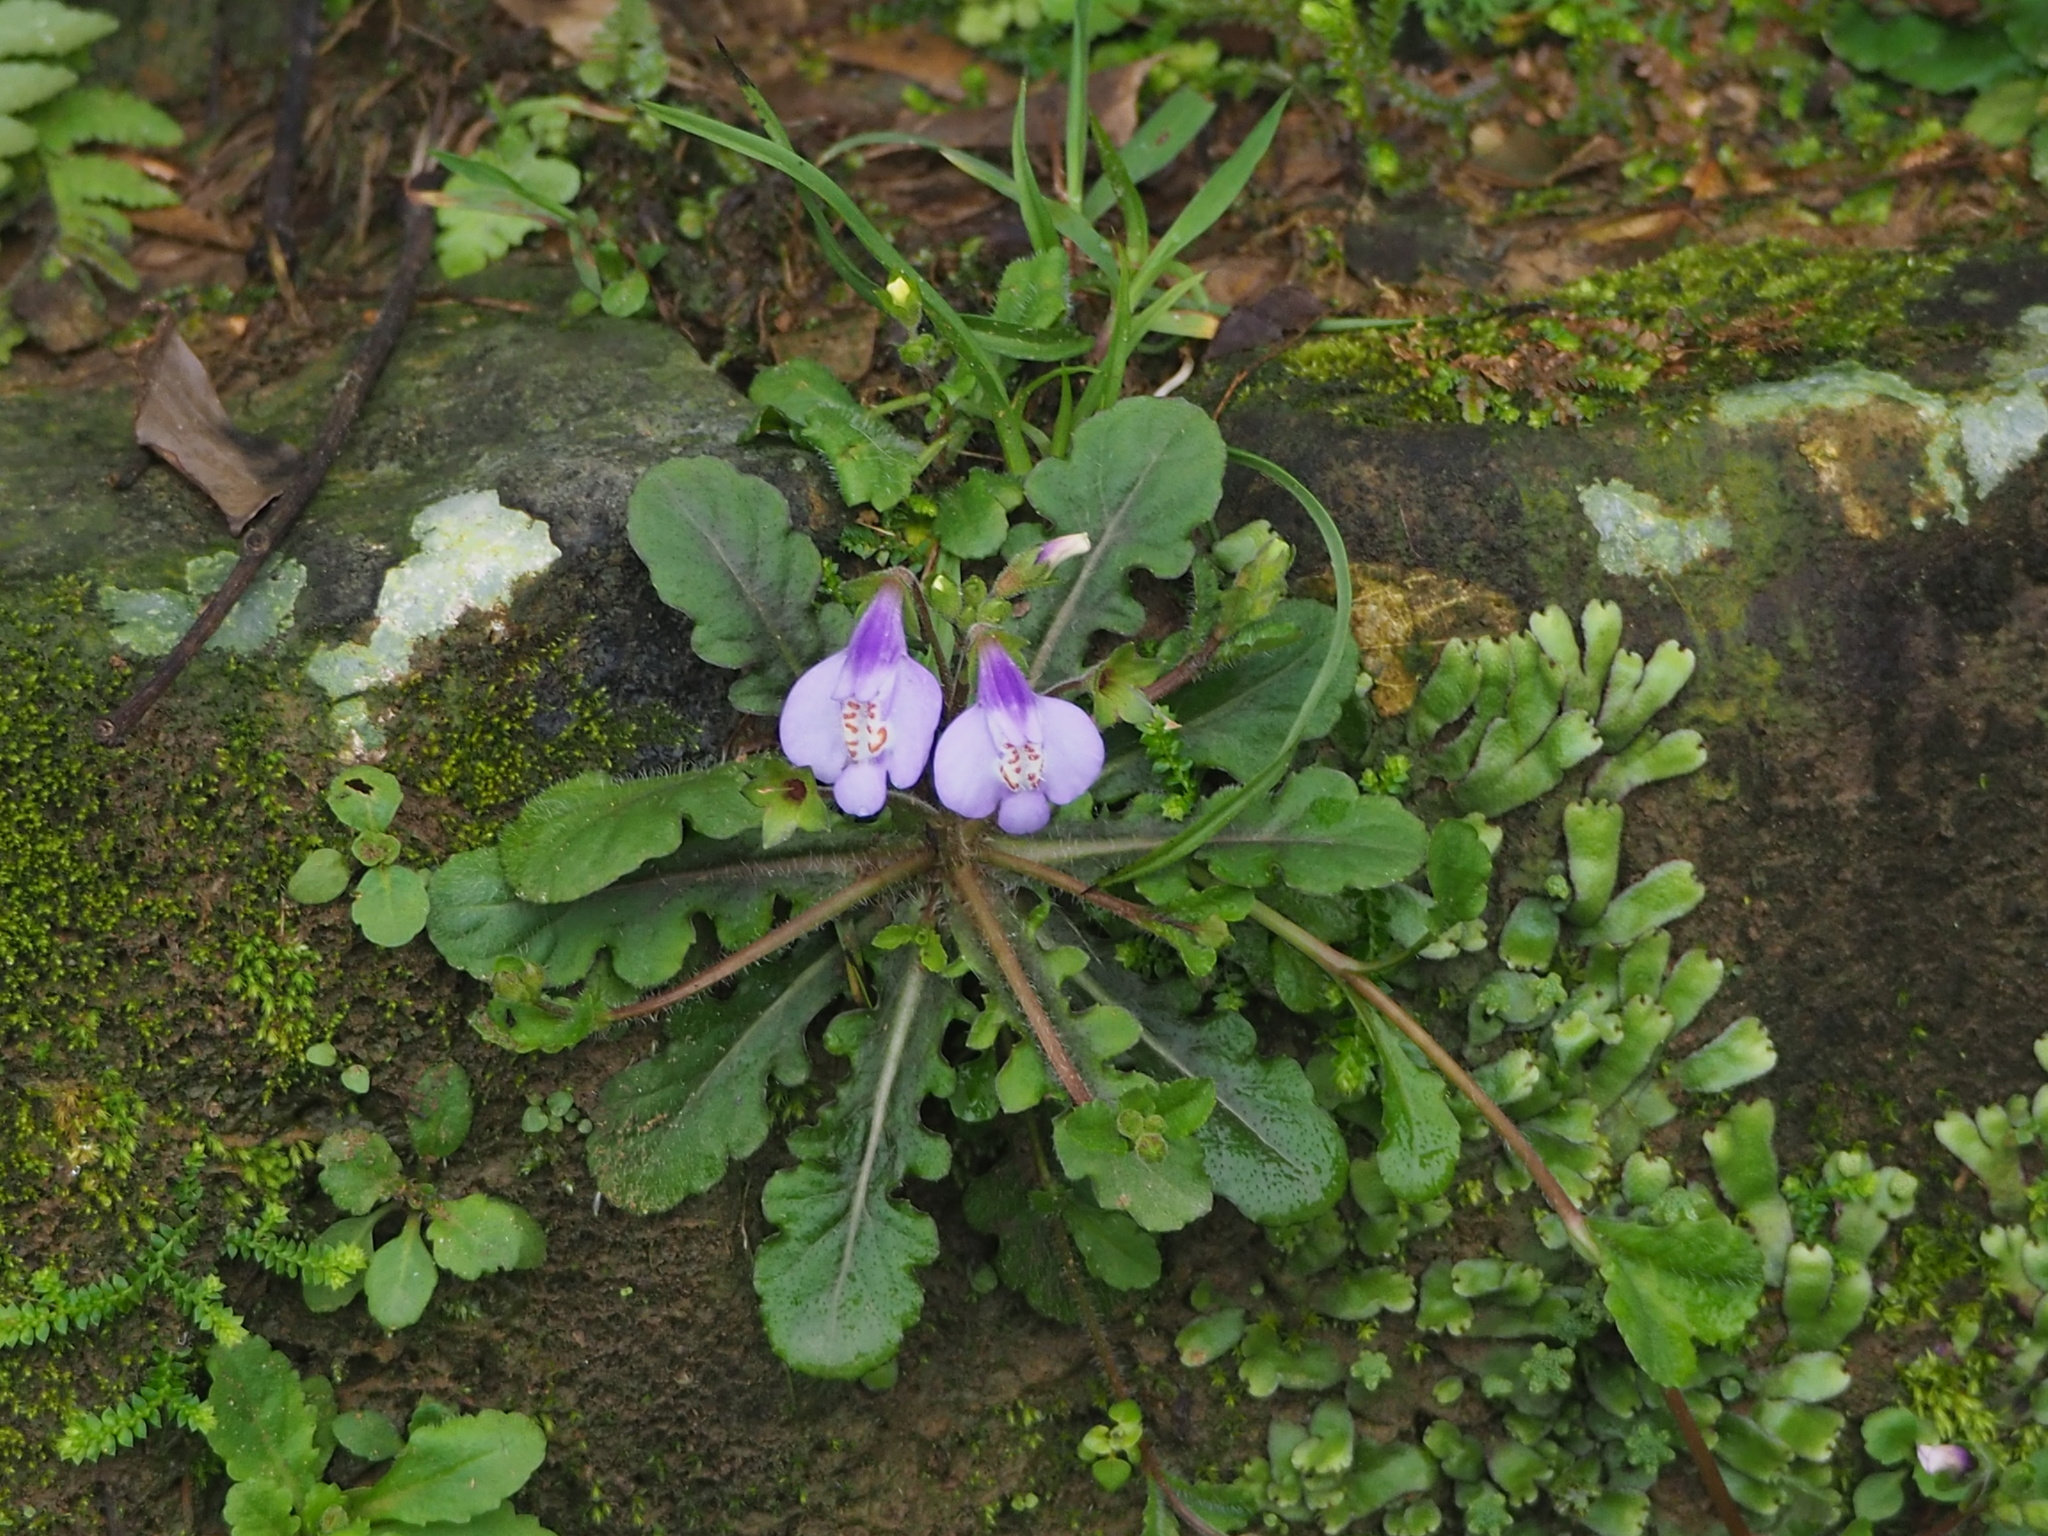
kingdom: Plantae
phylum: Tracheophyta
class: Magnoliopsida
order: Lamiales
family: Mazaceae
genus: Mazus
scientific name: Mazus fauriei
